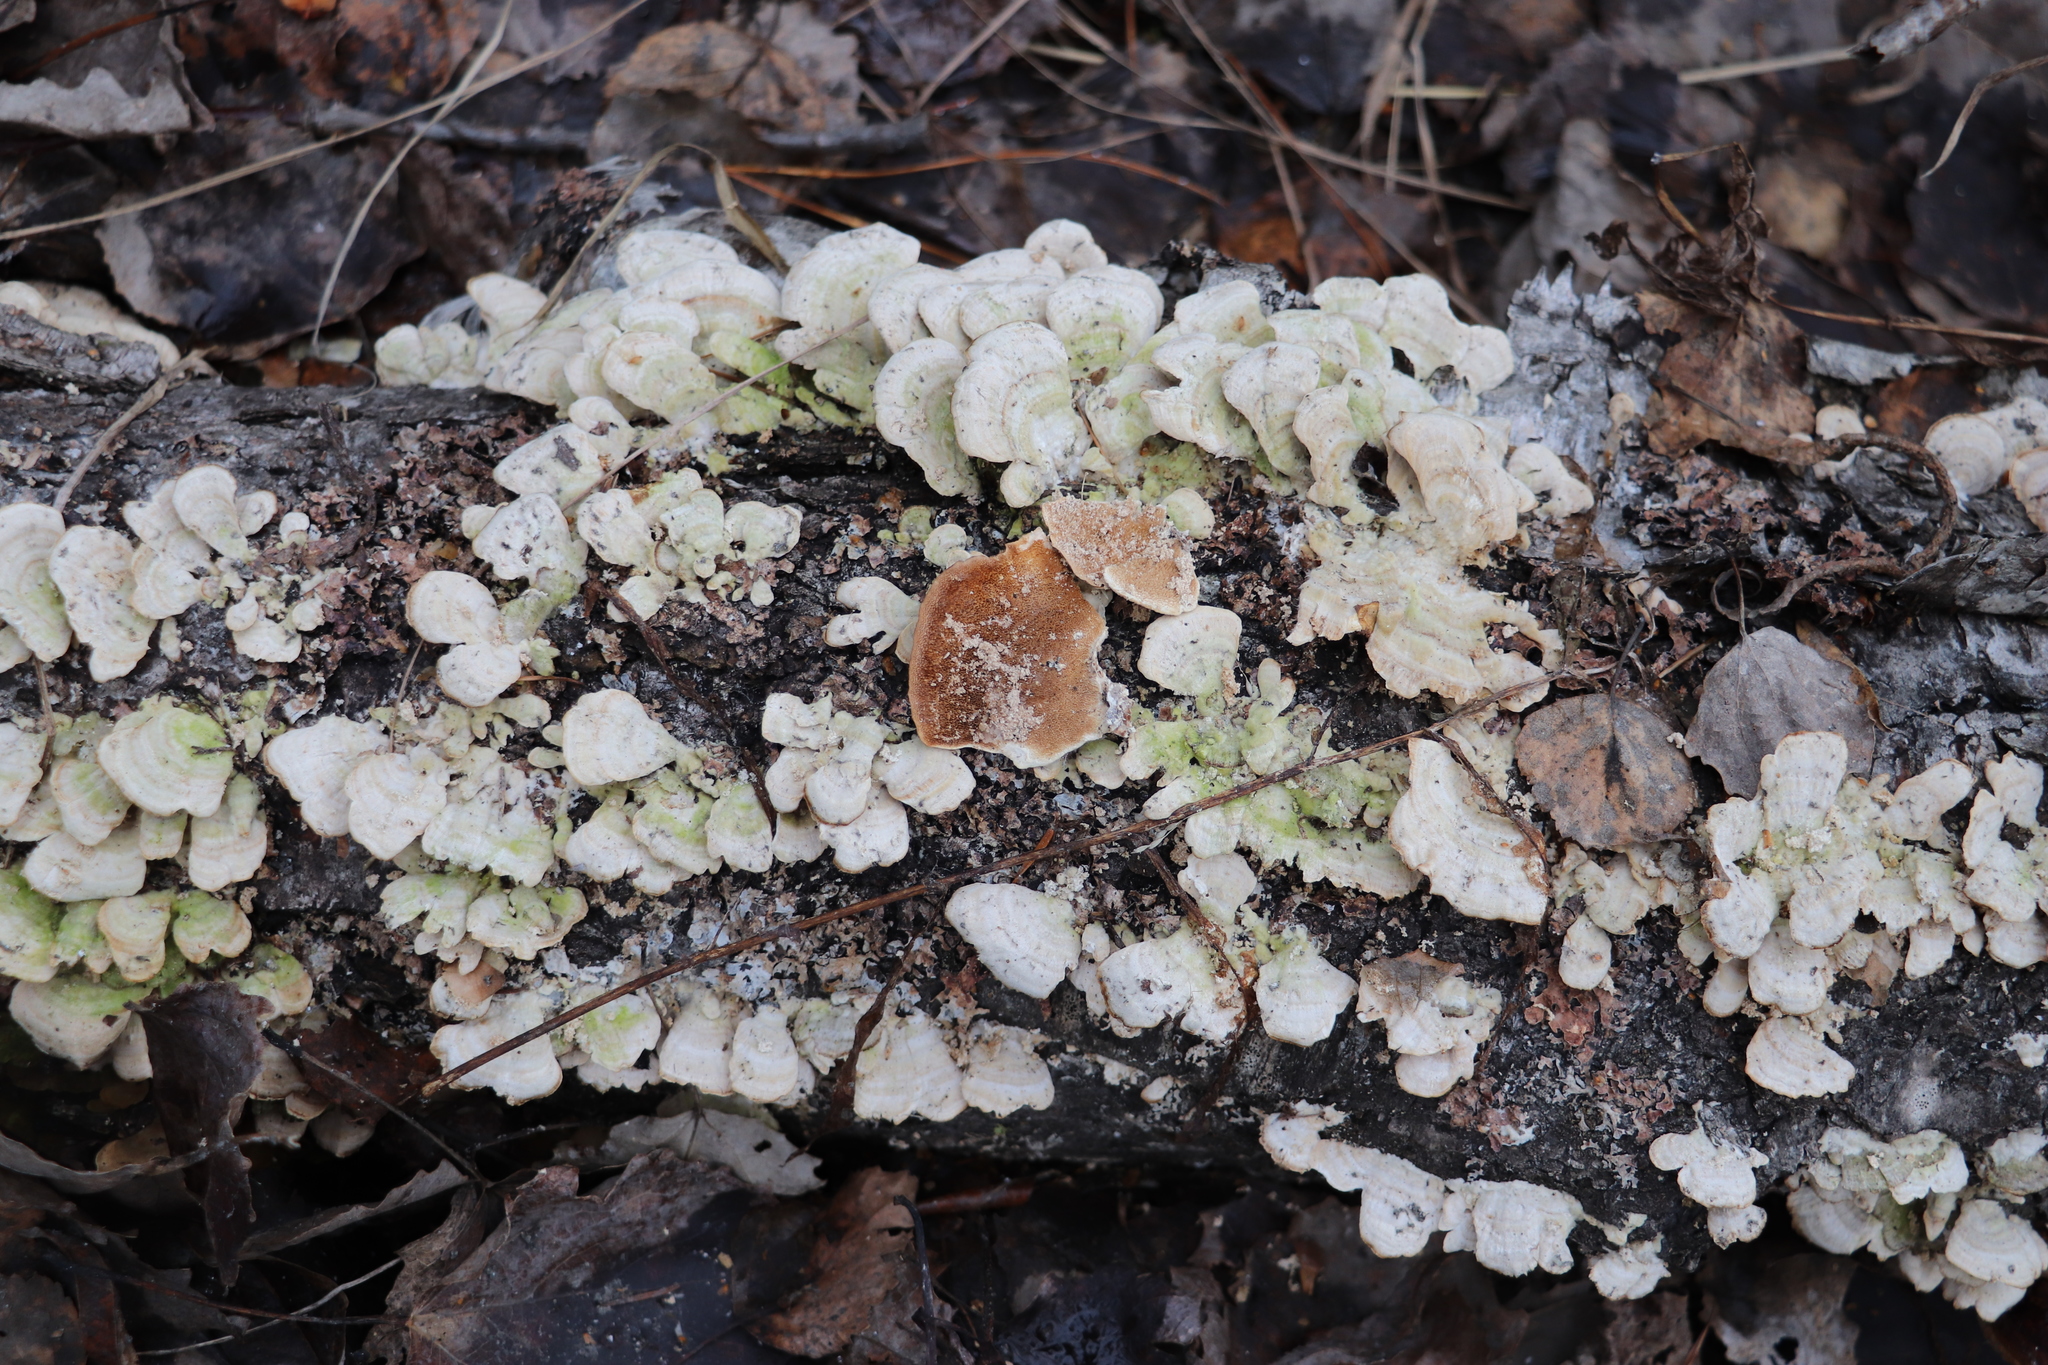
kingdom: Fungi
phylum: Basidiomycota
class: Agaricomycetes
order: Hymenochaetales
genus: Trichaptum
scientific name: Trichaptum biforme
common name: Violet-toothed polypore
